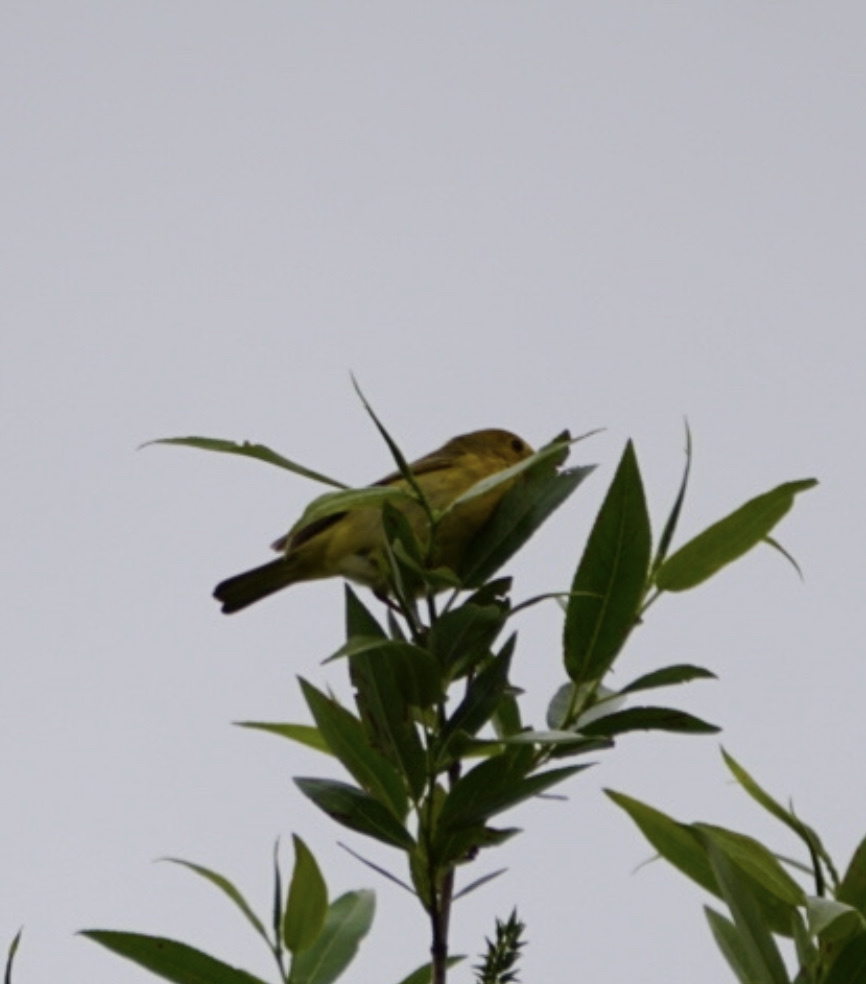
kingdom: Animalia
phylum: Chordata
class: Aves
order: Passeriformes
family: Parulidae
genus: Setophaga
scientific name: Setophaga petechia
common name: Yellow warbler
